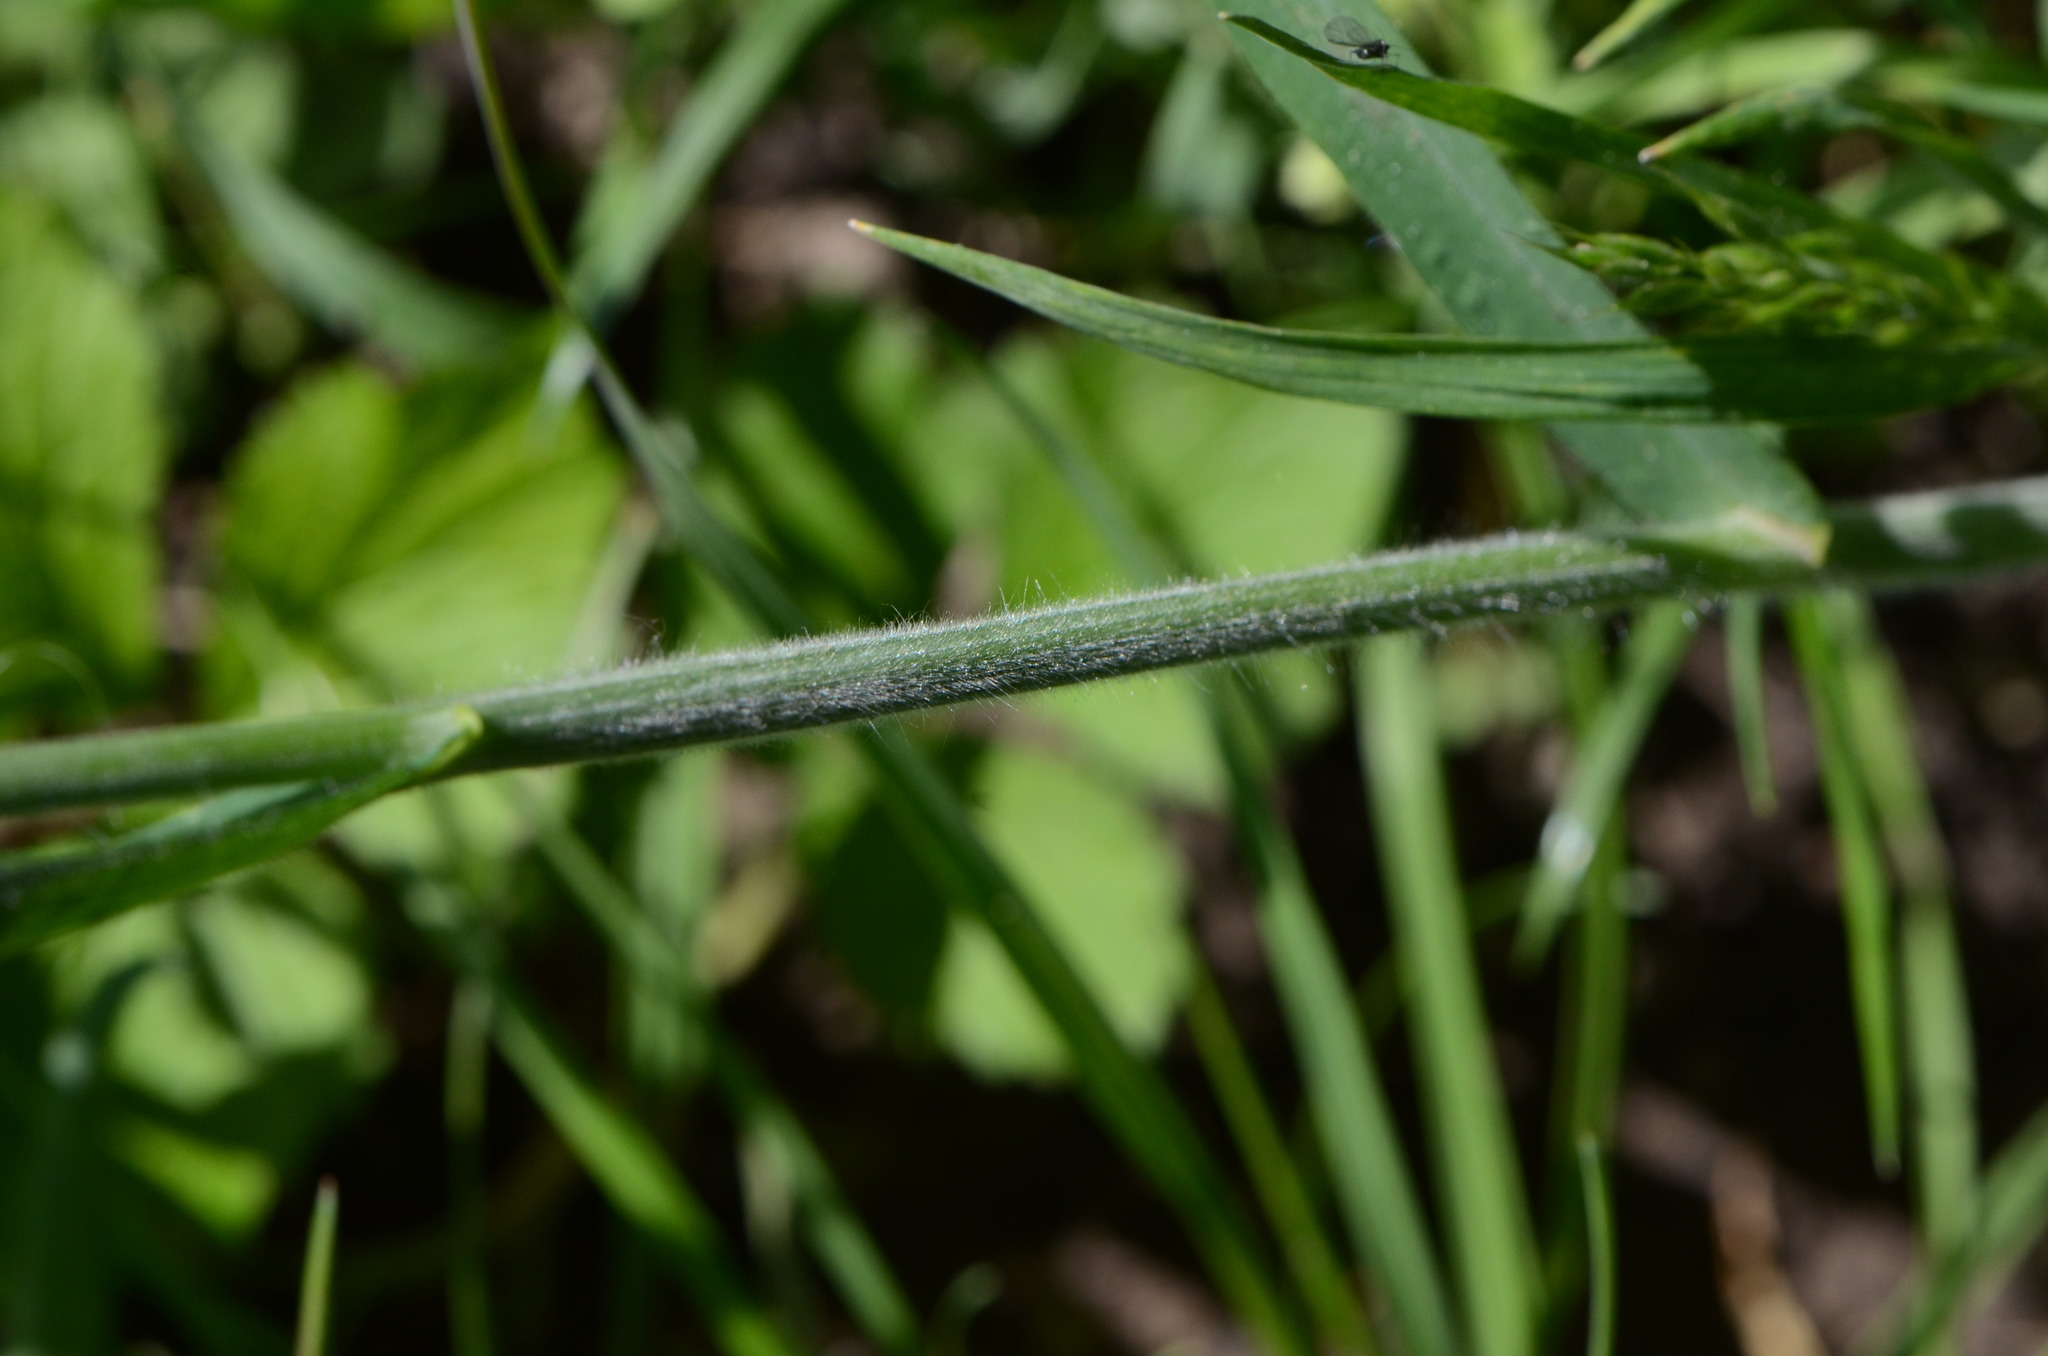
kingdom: Plantae
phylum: Tracheophyta
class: Liliopsida
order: Poales
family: Poaceae
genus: Bromus
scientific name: Bromus hordeaceus
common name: Soft brome
